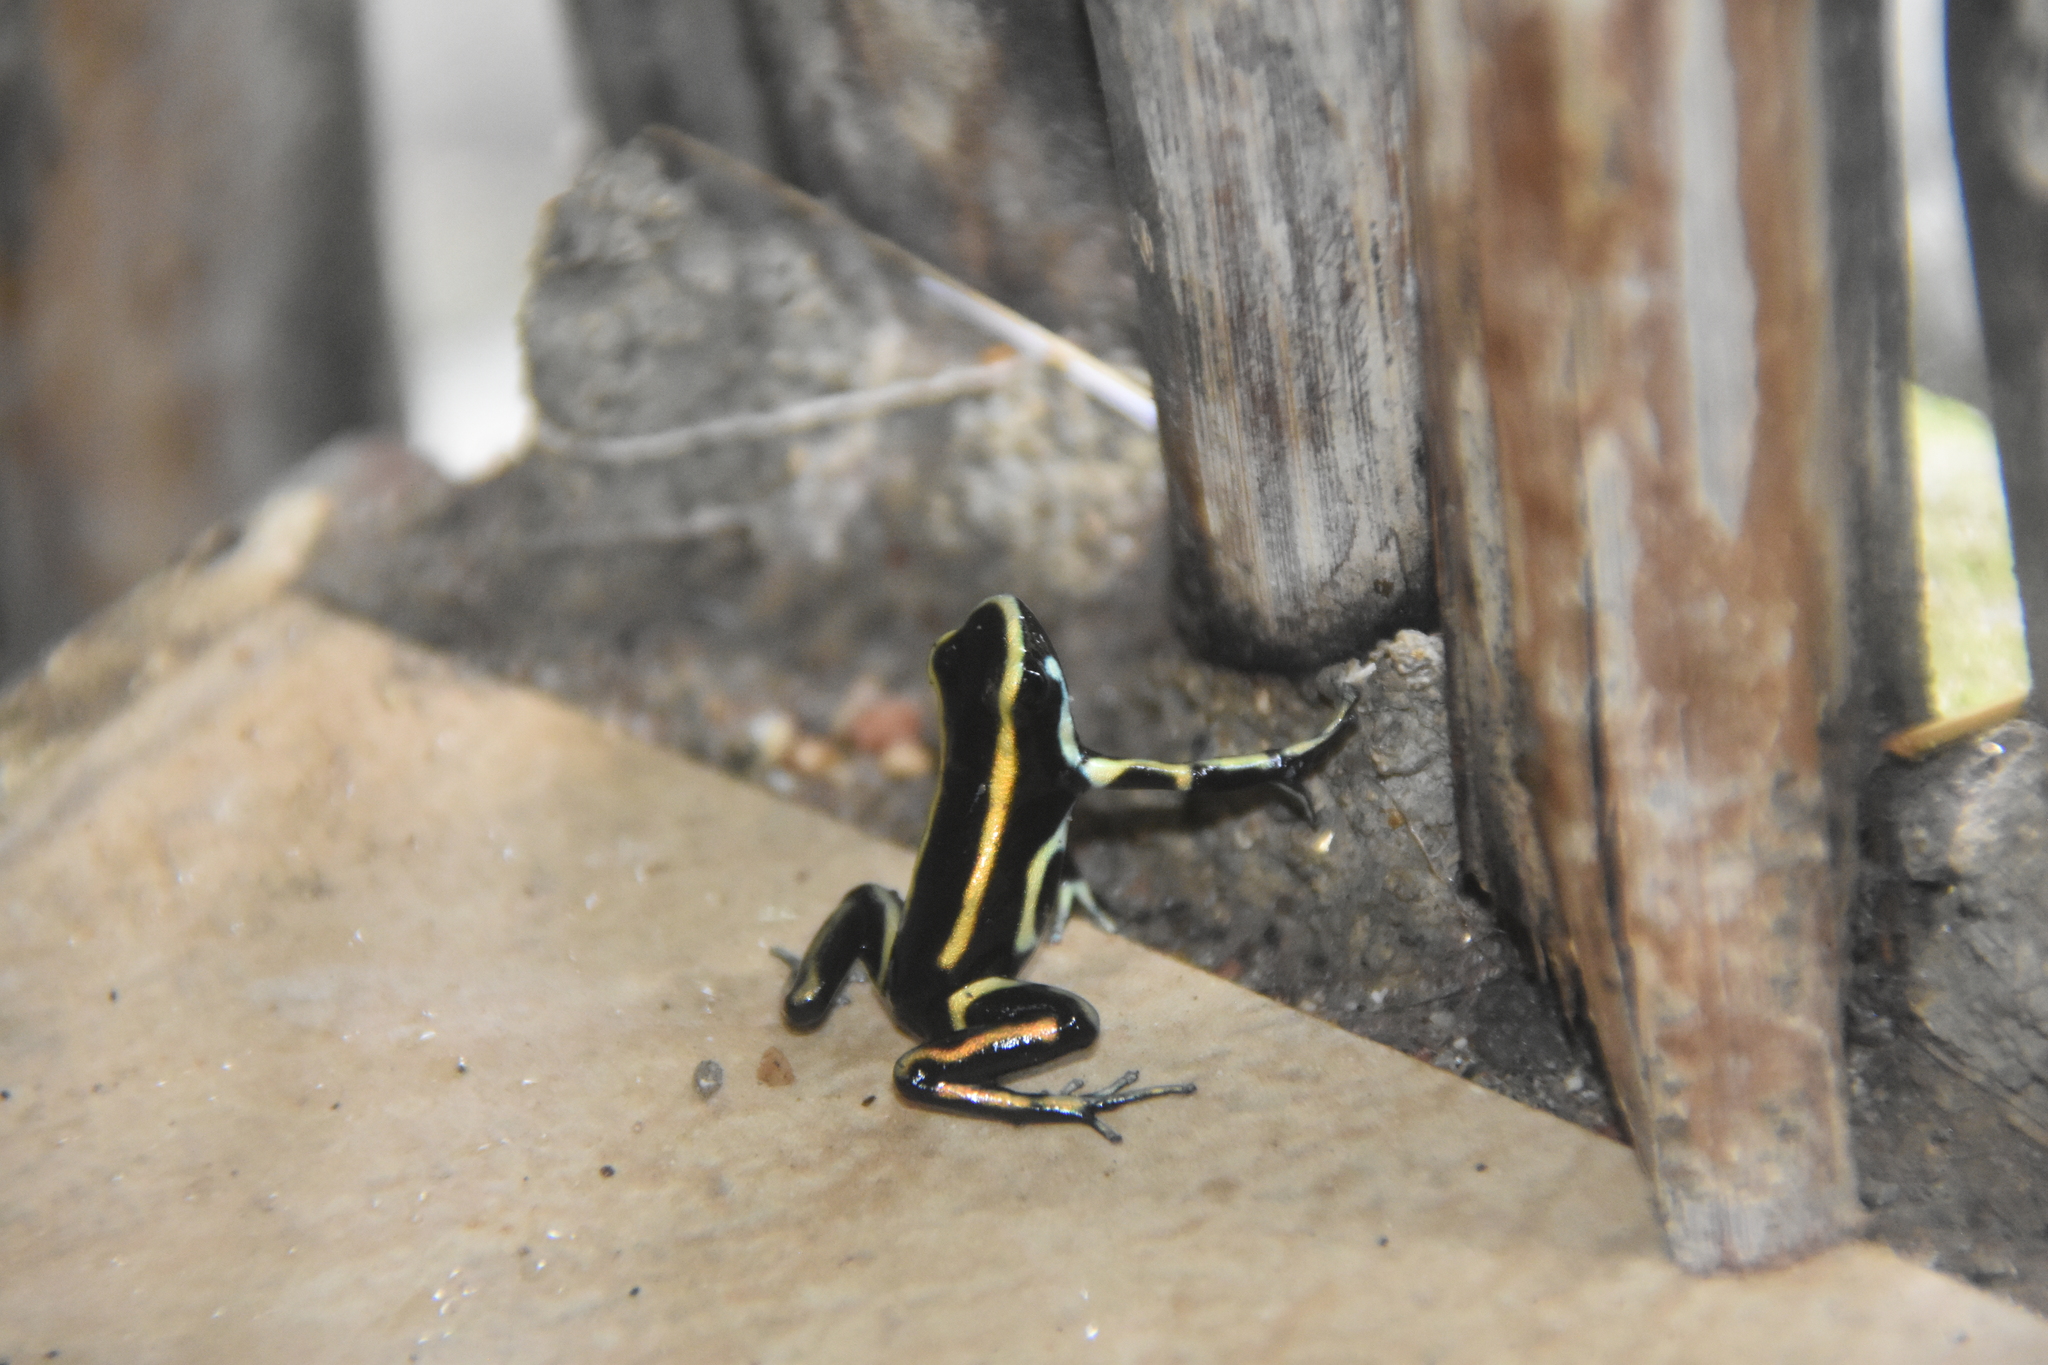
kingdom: Animalia
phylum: Chordata
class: Amphibia
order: Anura
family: Dendrobatidae
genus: Dendrobates
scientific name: Dendrobates truncatus
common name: Yellow-striped poison frog
